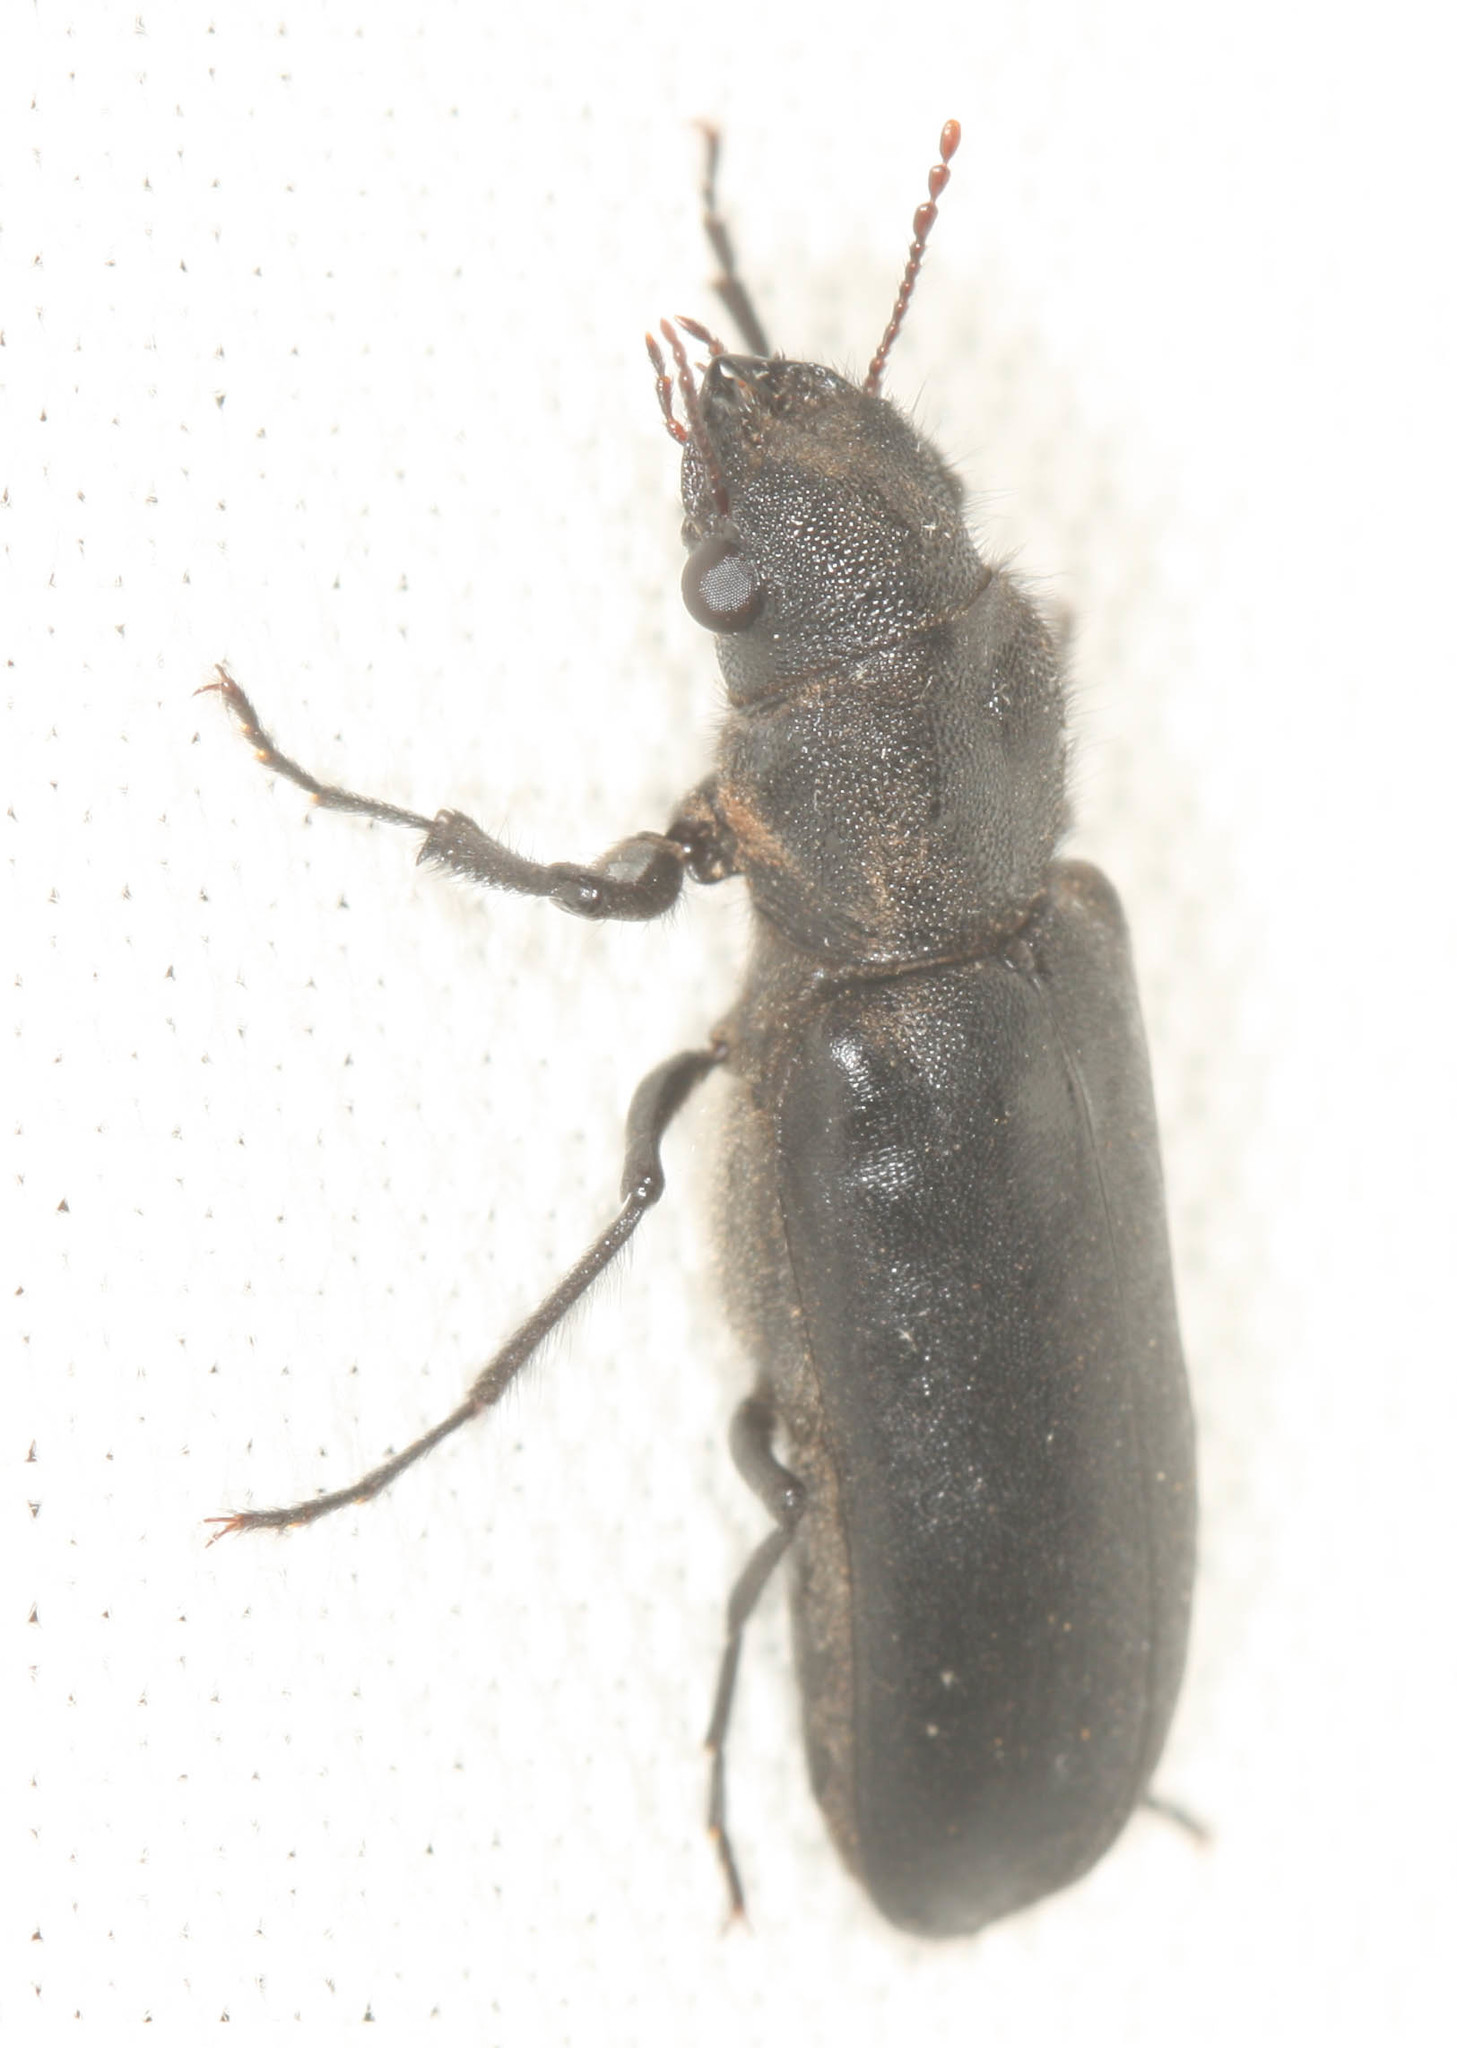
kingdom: Animalia
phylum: Arthropoda
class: Insecta
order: Coleoptera
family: Bostrichidae
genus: Polycaon
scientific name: Polycaon stoutii
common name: Powderpost beetle
